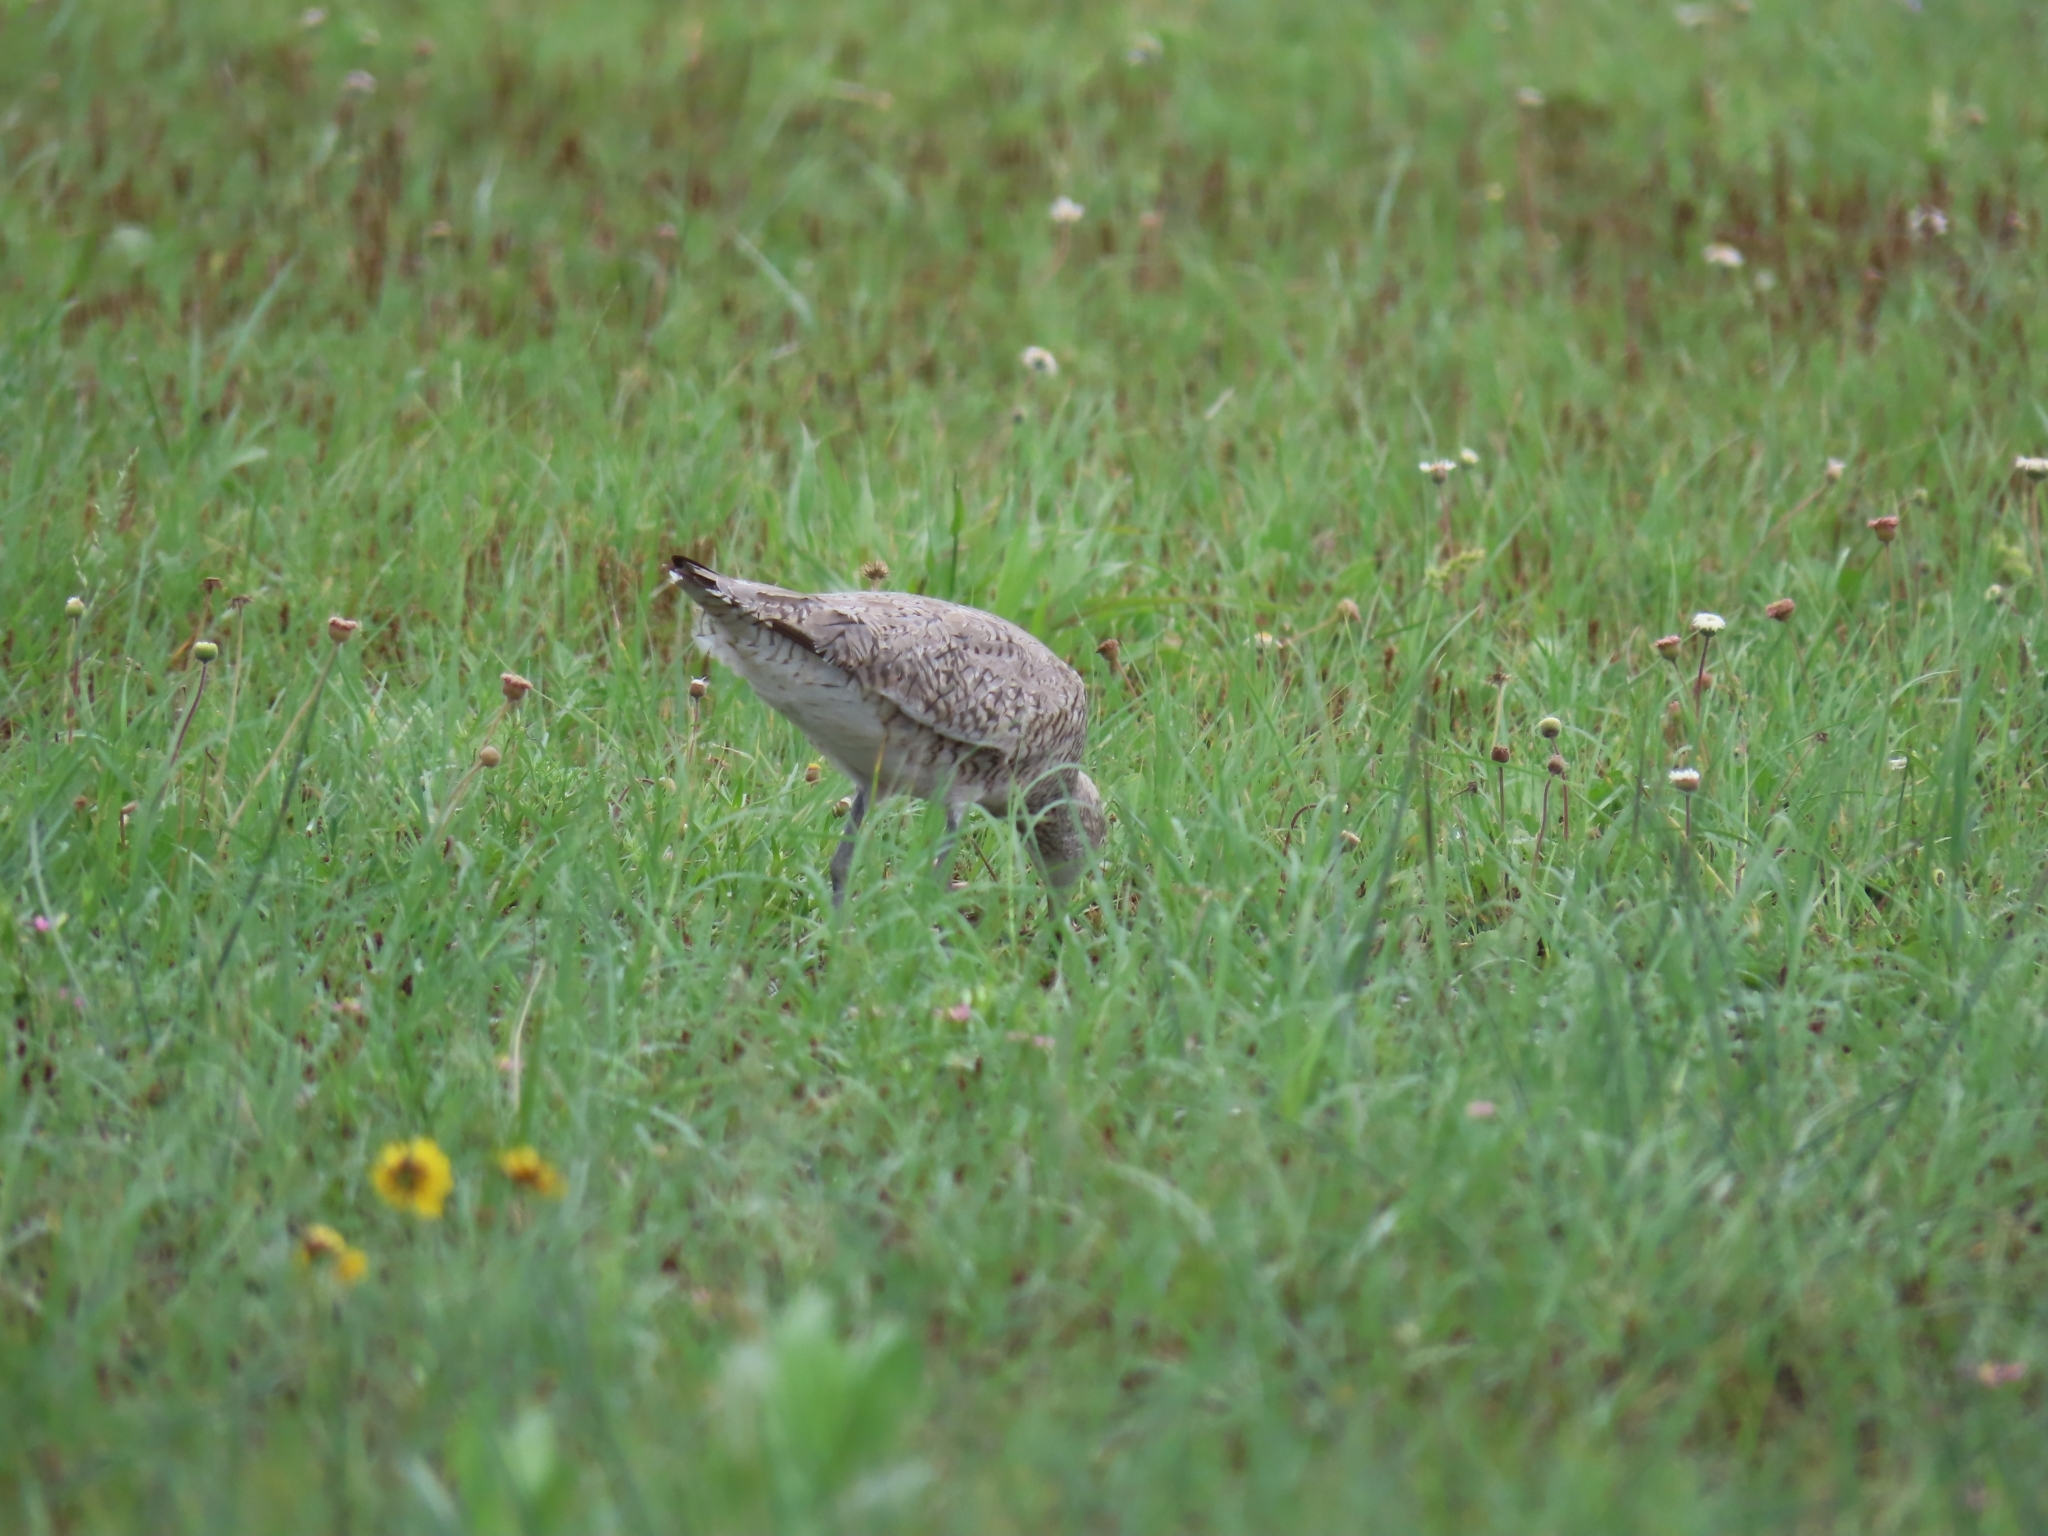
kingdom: Animalia
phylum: Chordata
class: Aves
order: Charadriiformes
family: Scolopacidae
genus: Tringa
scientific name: Tringa semipalmata
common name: Willet
